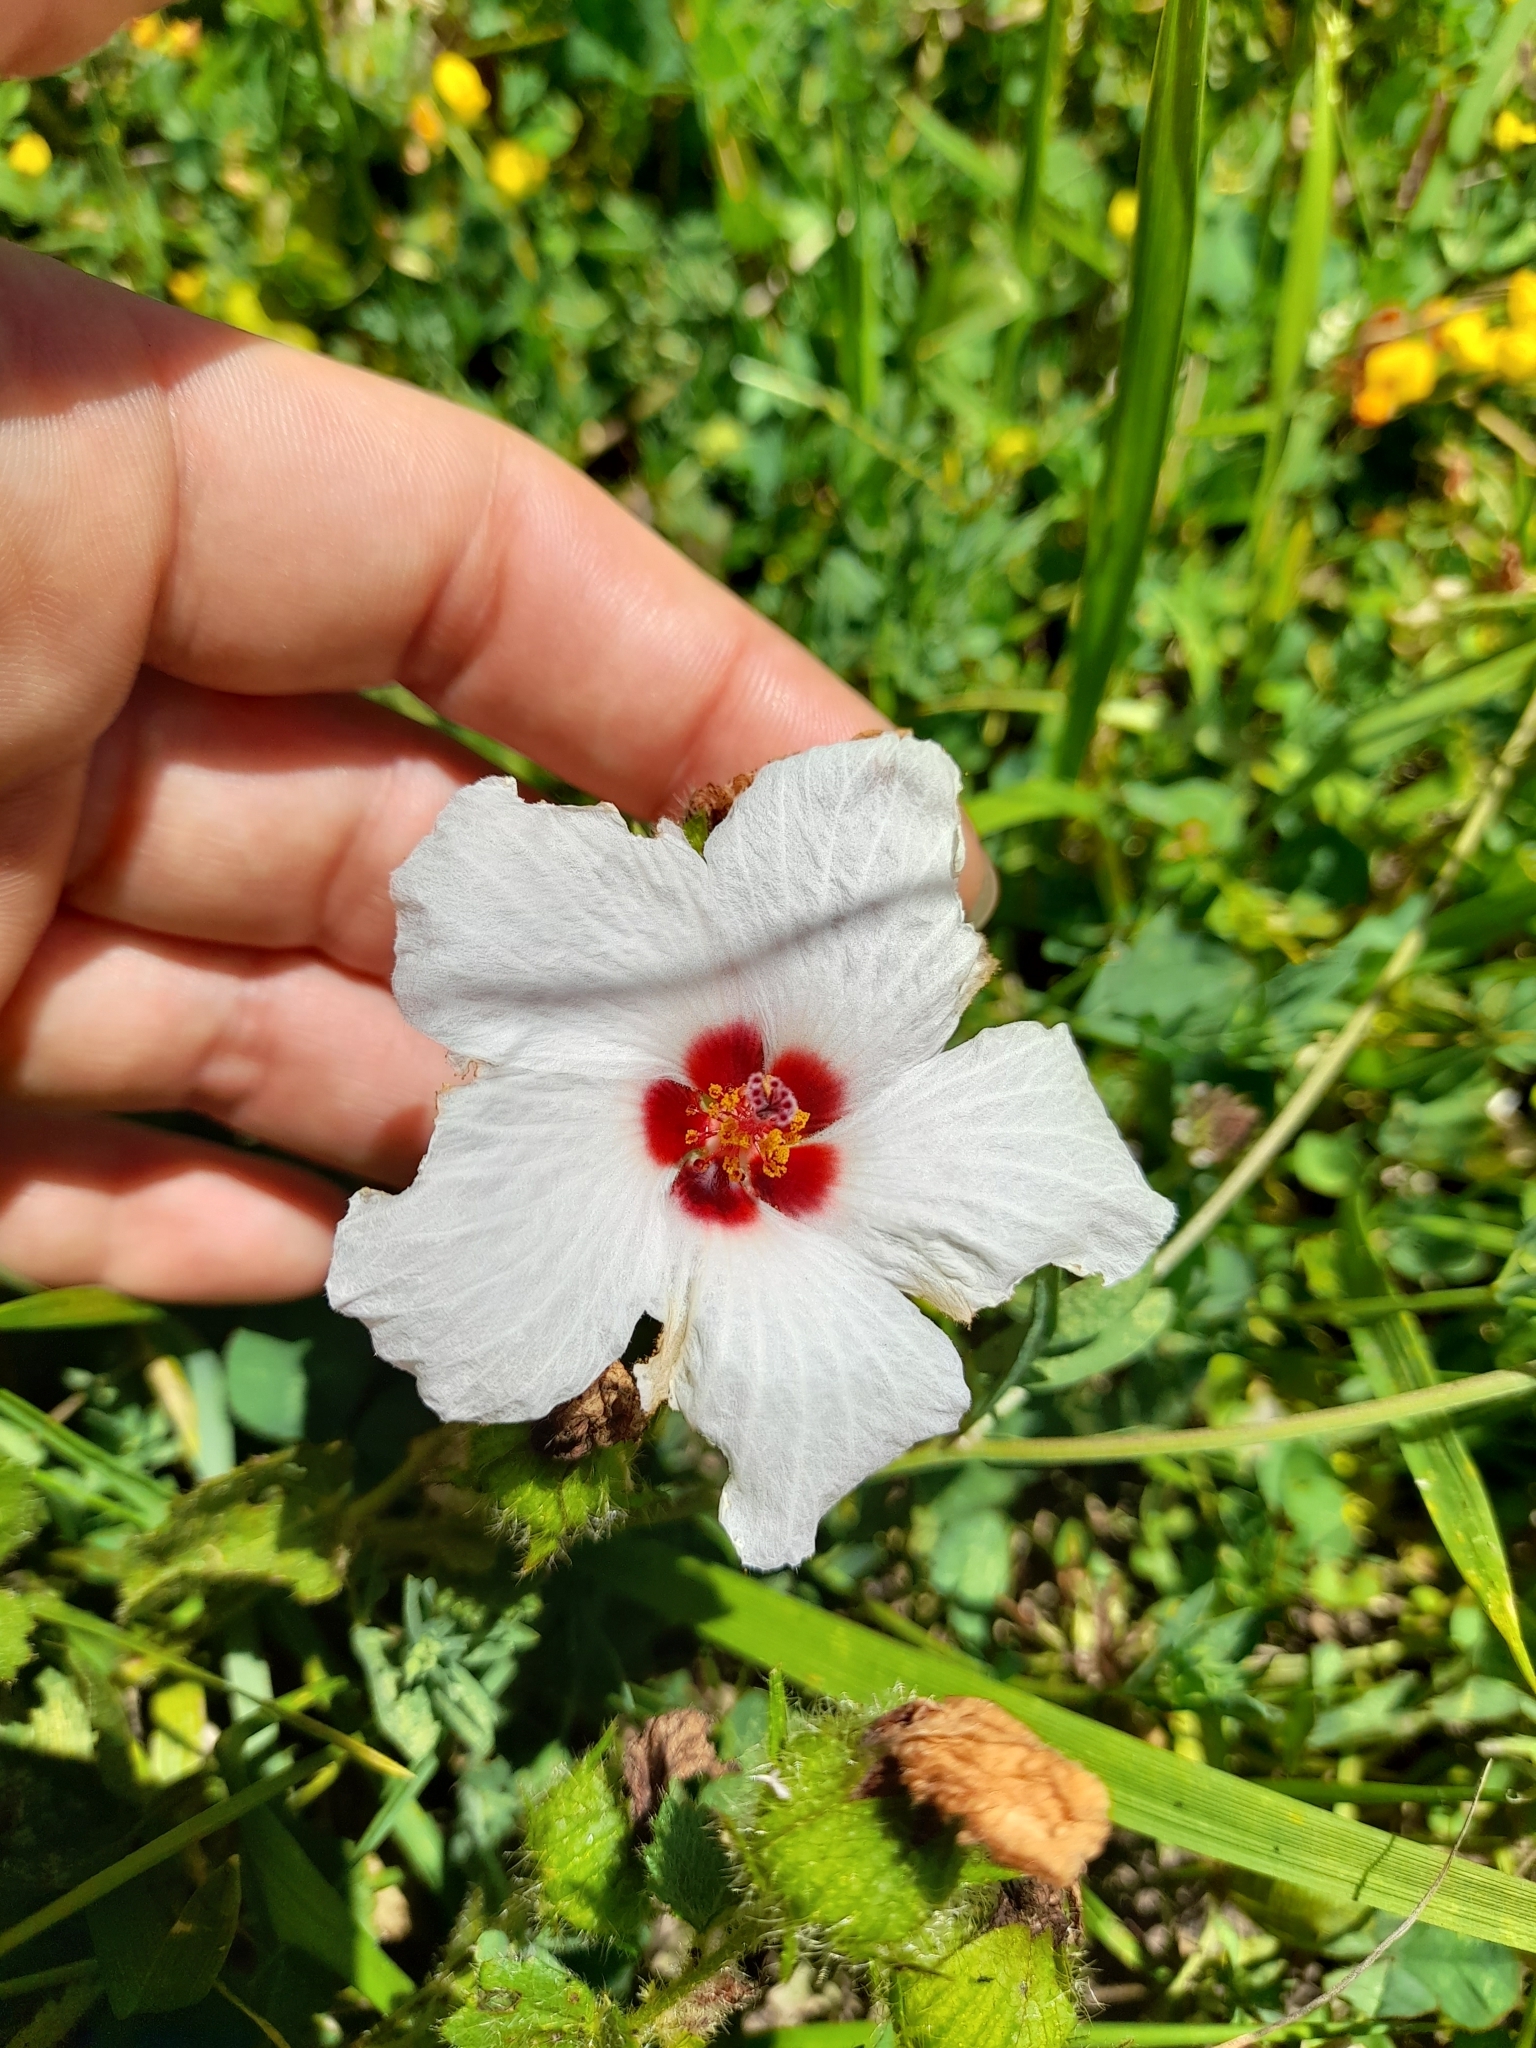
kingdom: Plantae
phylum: Tracheophyta
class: Magnoliopsida
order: Malvales
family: Malvaceae
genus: Pavonia
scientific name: Pavonia glechomoides
